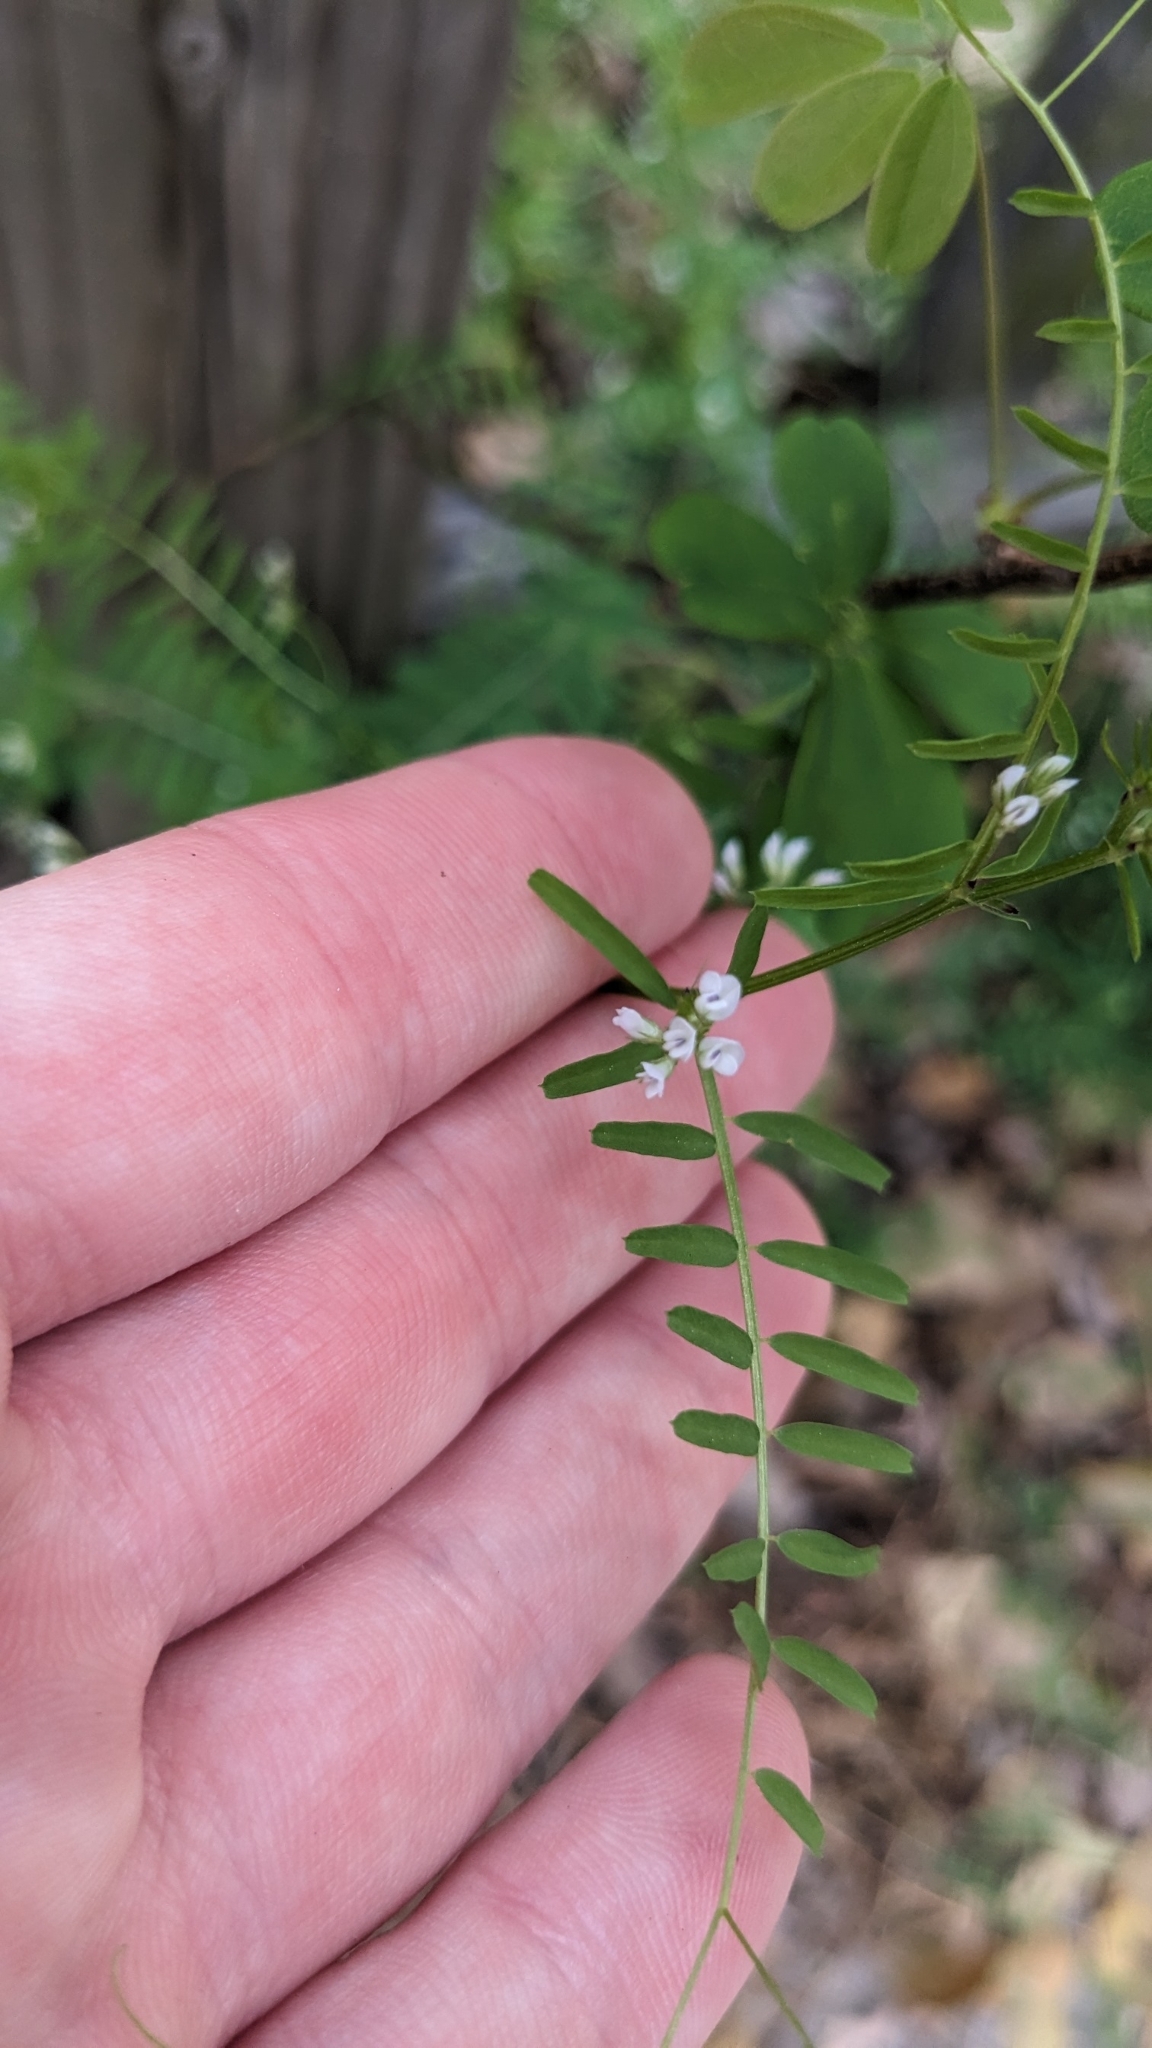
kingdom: Plantae
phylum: Tracheophyta
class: Magnoliopsida
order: Fabales
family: Fabaceae
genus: Vicia
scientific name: Vicia hirsuta
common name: Tiny vetch
